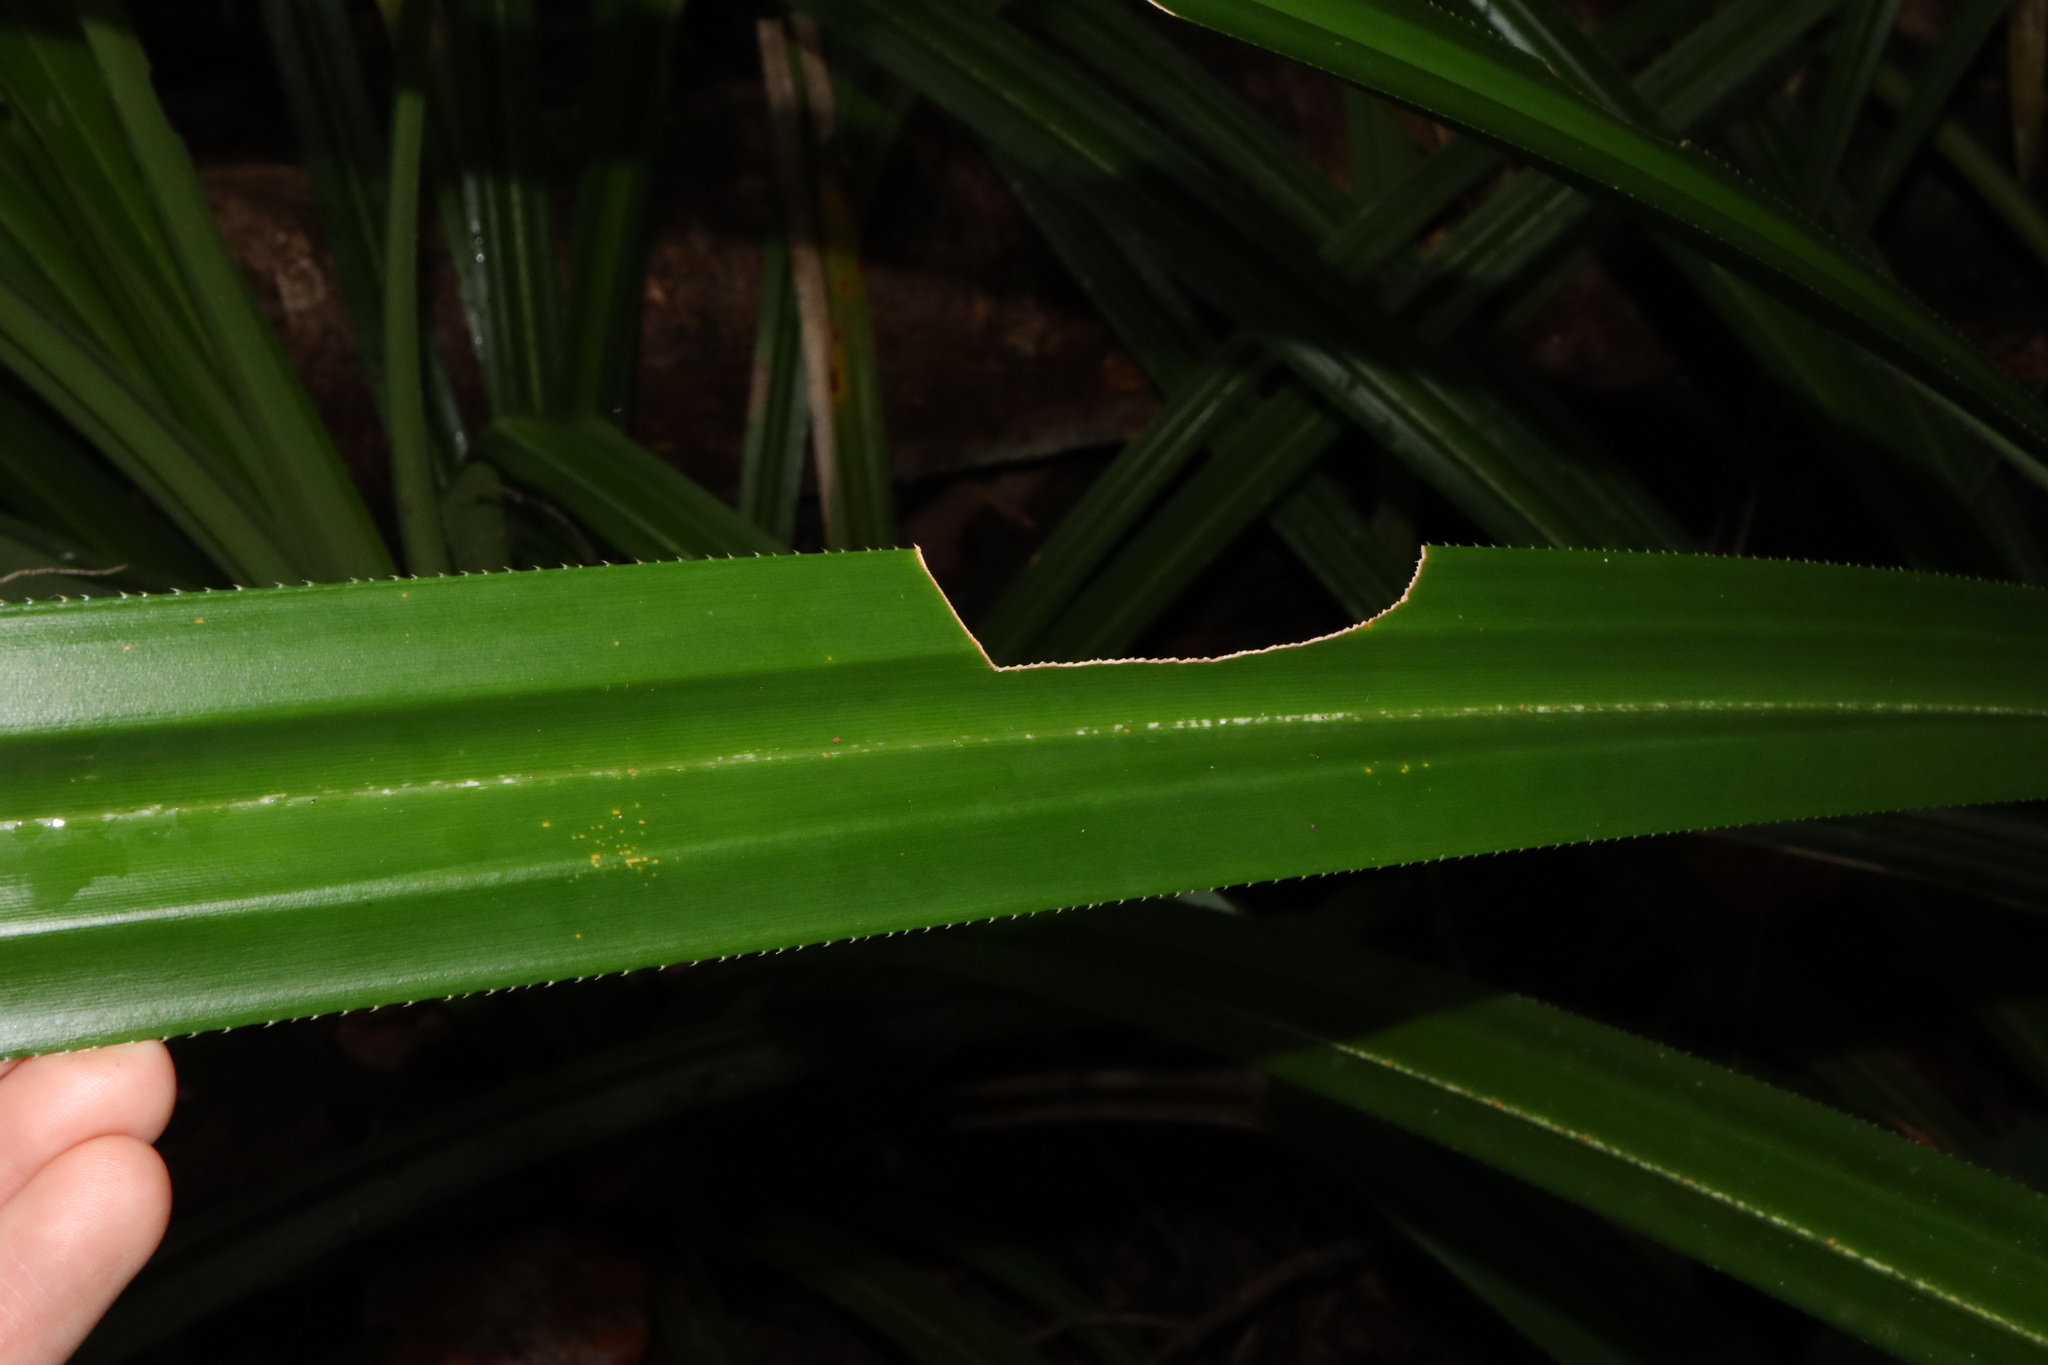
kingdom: Animalia
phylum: Arthropoda
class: Insecta
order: Phasmida
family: Phasmatidae
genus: Megacrania
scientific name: Megacrania batesii
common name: Peppermint stick-insect
